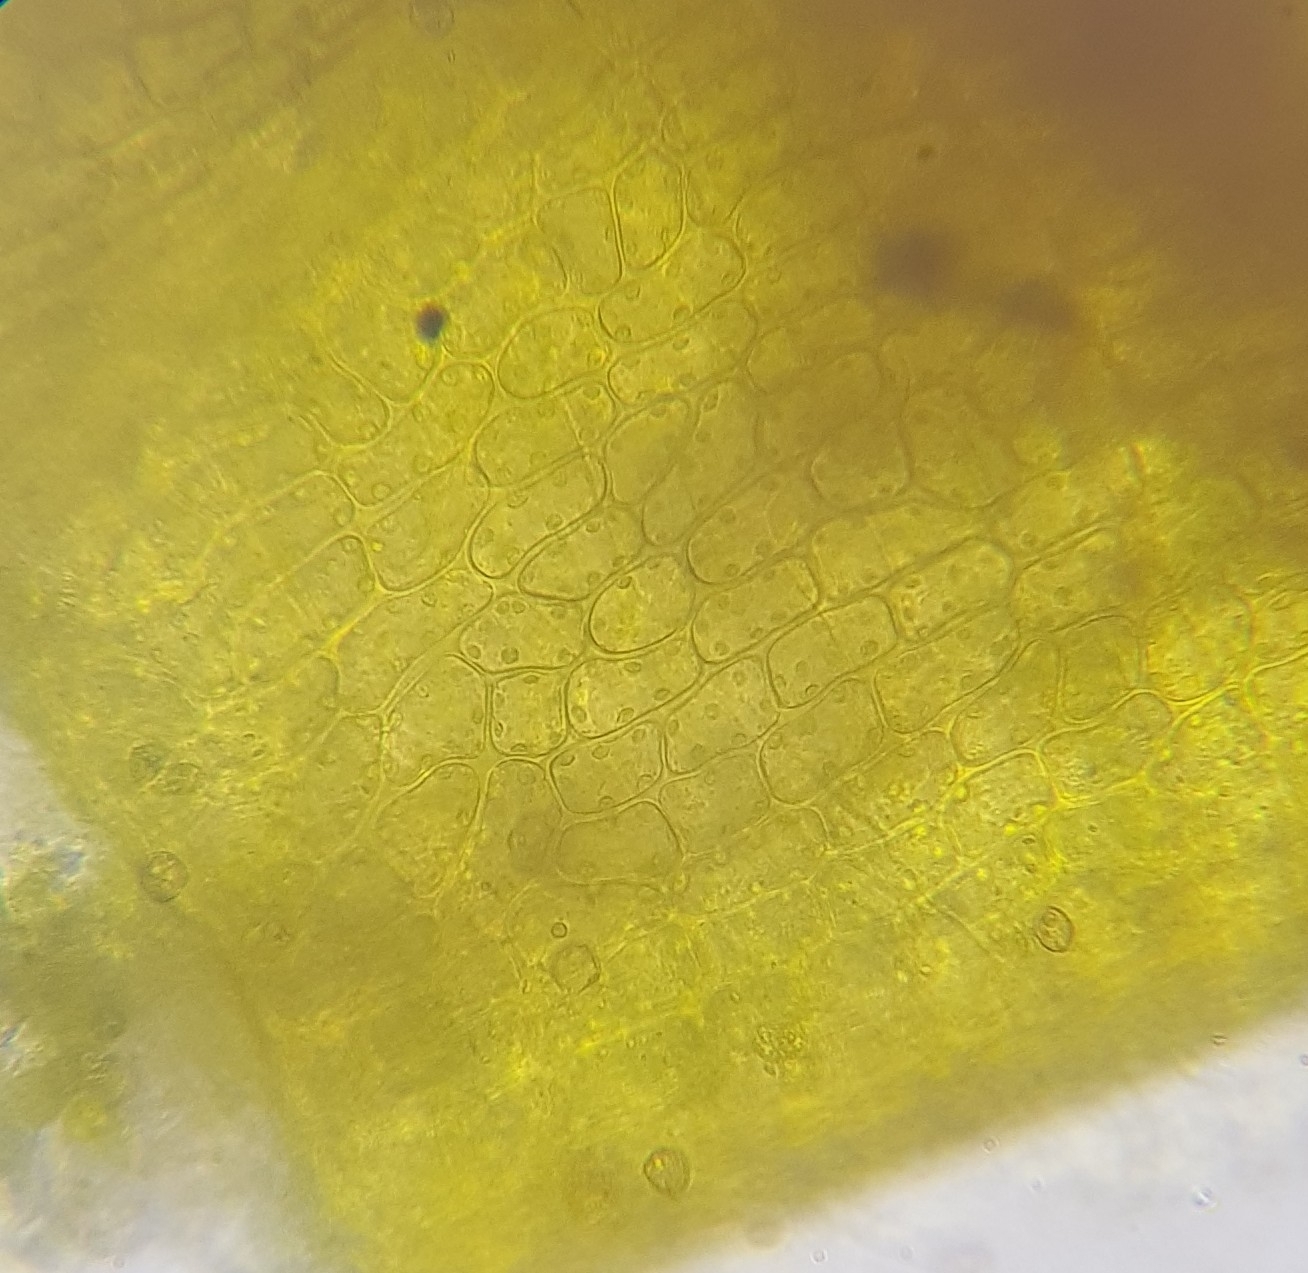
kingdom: Plantae
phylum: Bryophyta
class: Bryopsida
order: Grimmiales
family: Grimmiaceae
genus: Schistidium
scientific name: Schistidium apocarpum
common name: Radiate bloom moss
